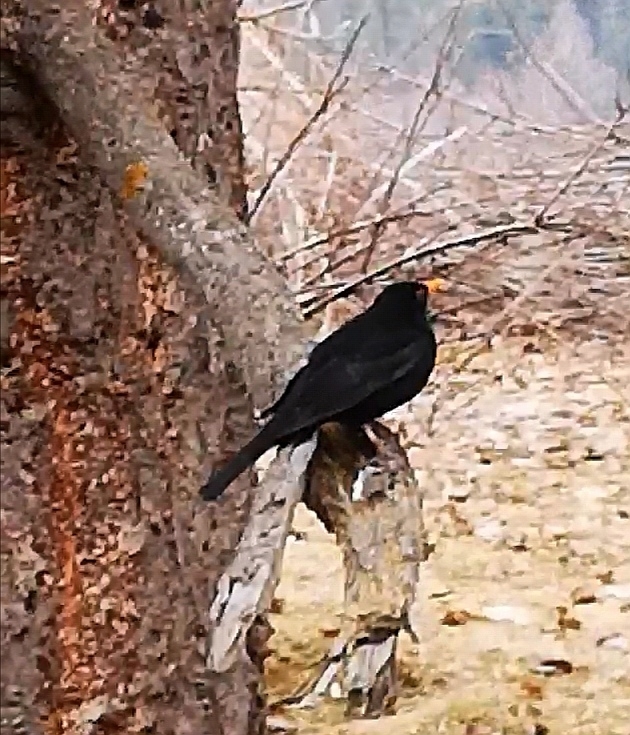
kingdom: Animalia
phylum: Chordata
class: Aves
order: Passeriformes
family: Turdidae
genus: Turdus
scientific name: Turdus merula
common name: Common blackbird
